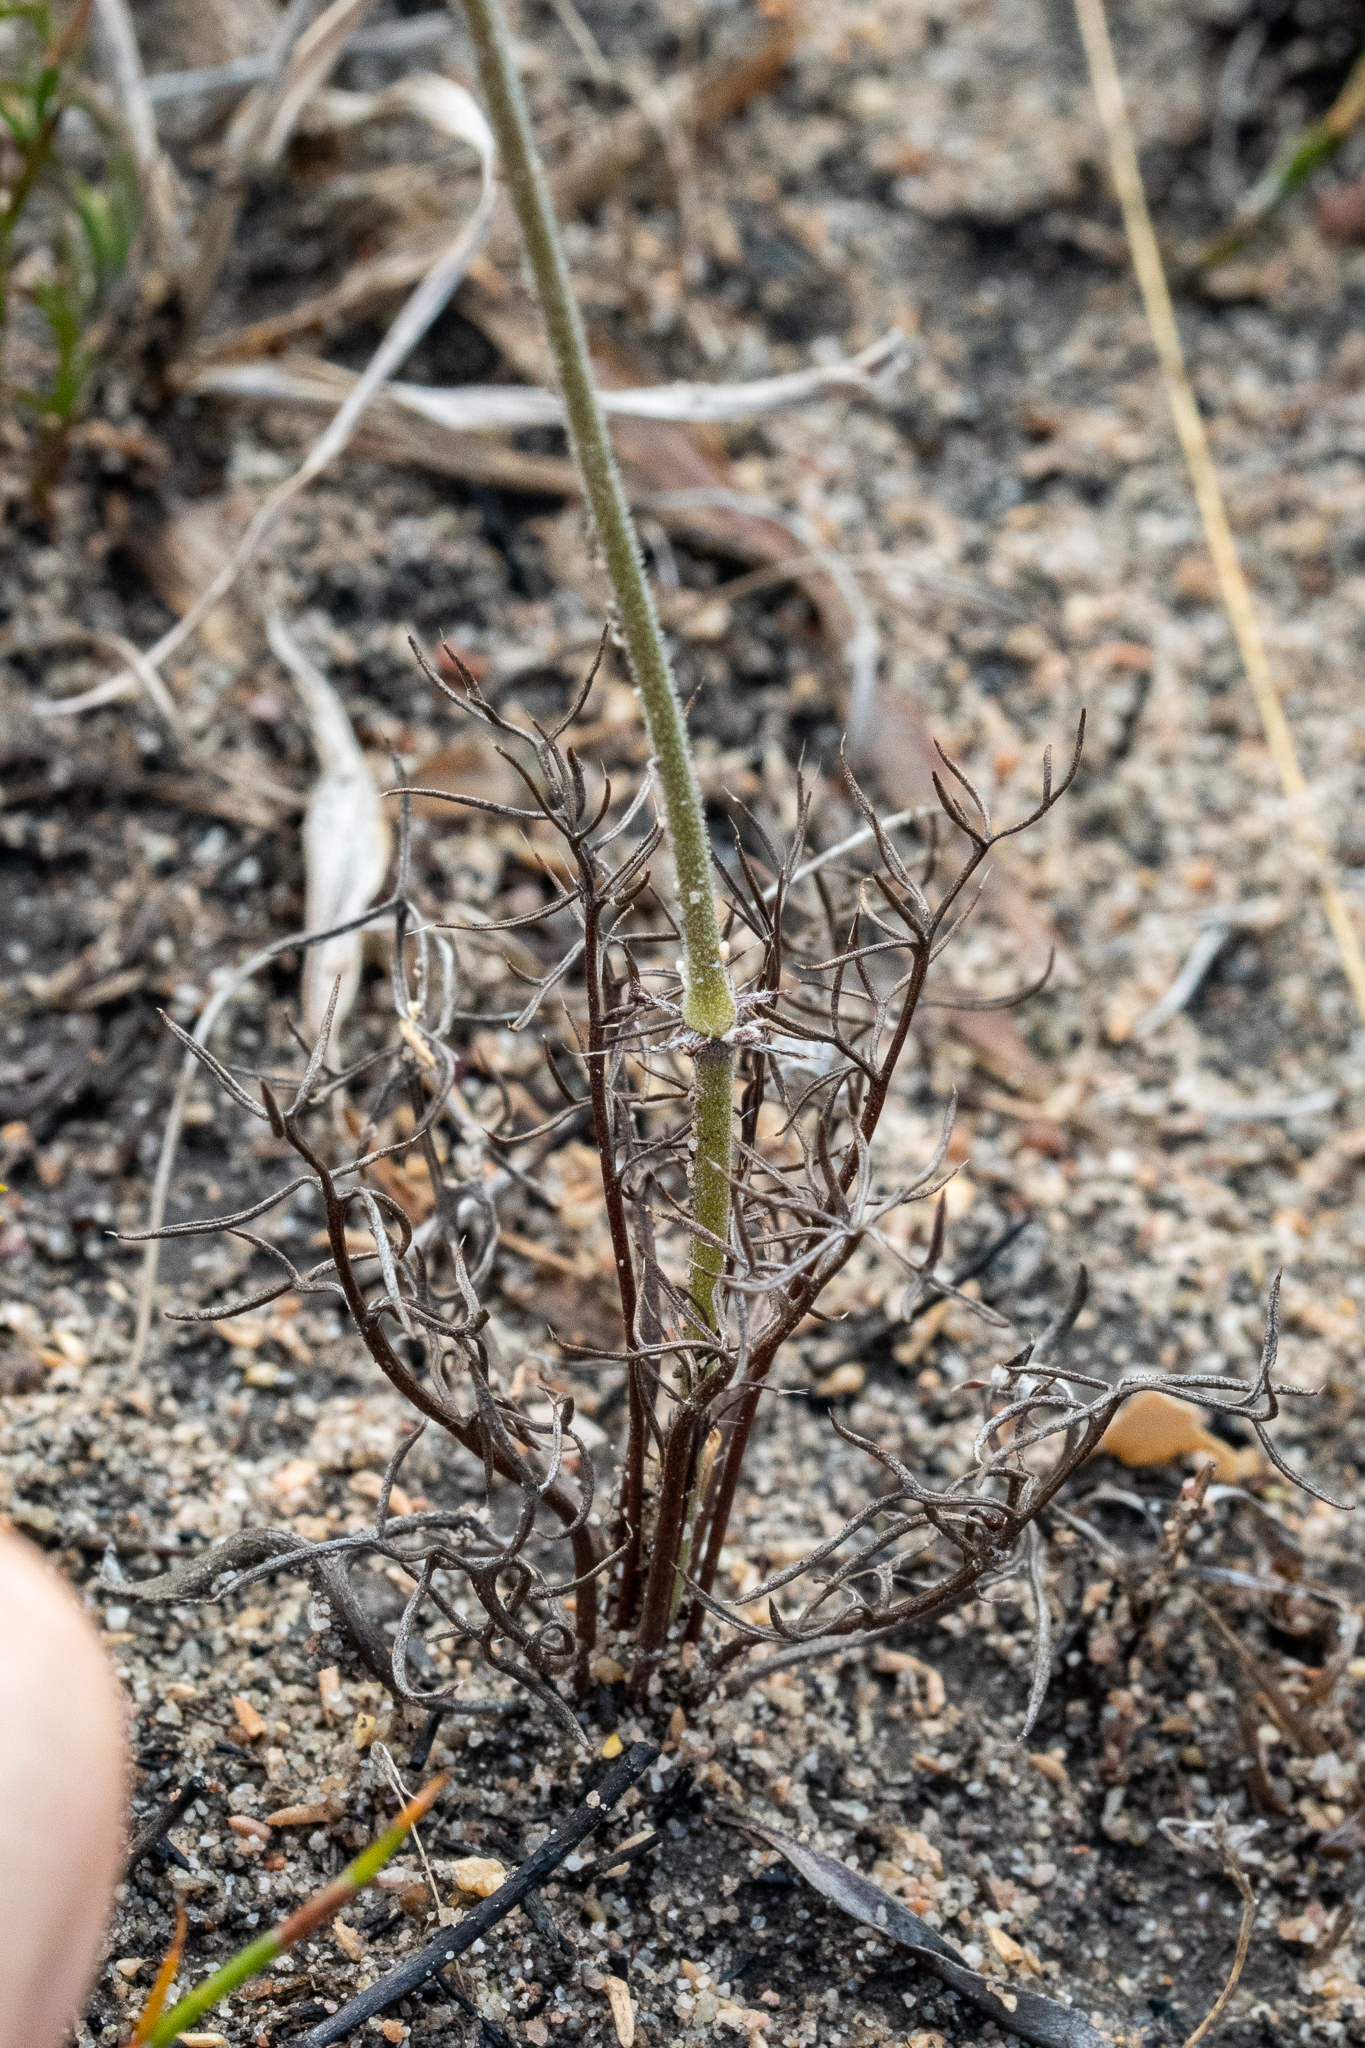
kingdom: Plantae
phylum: Tracheophyta
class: Magnoliopsida
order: Geraniales
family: Geraniaceae
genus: Pelargonium
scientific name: Pelargonium caledonicum
